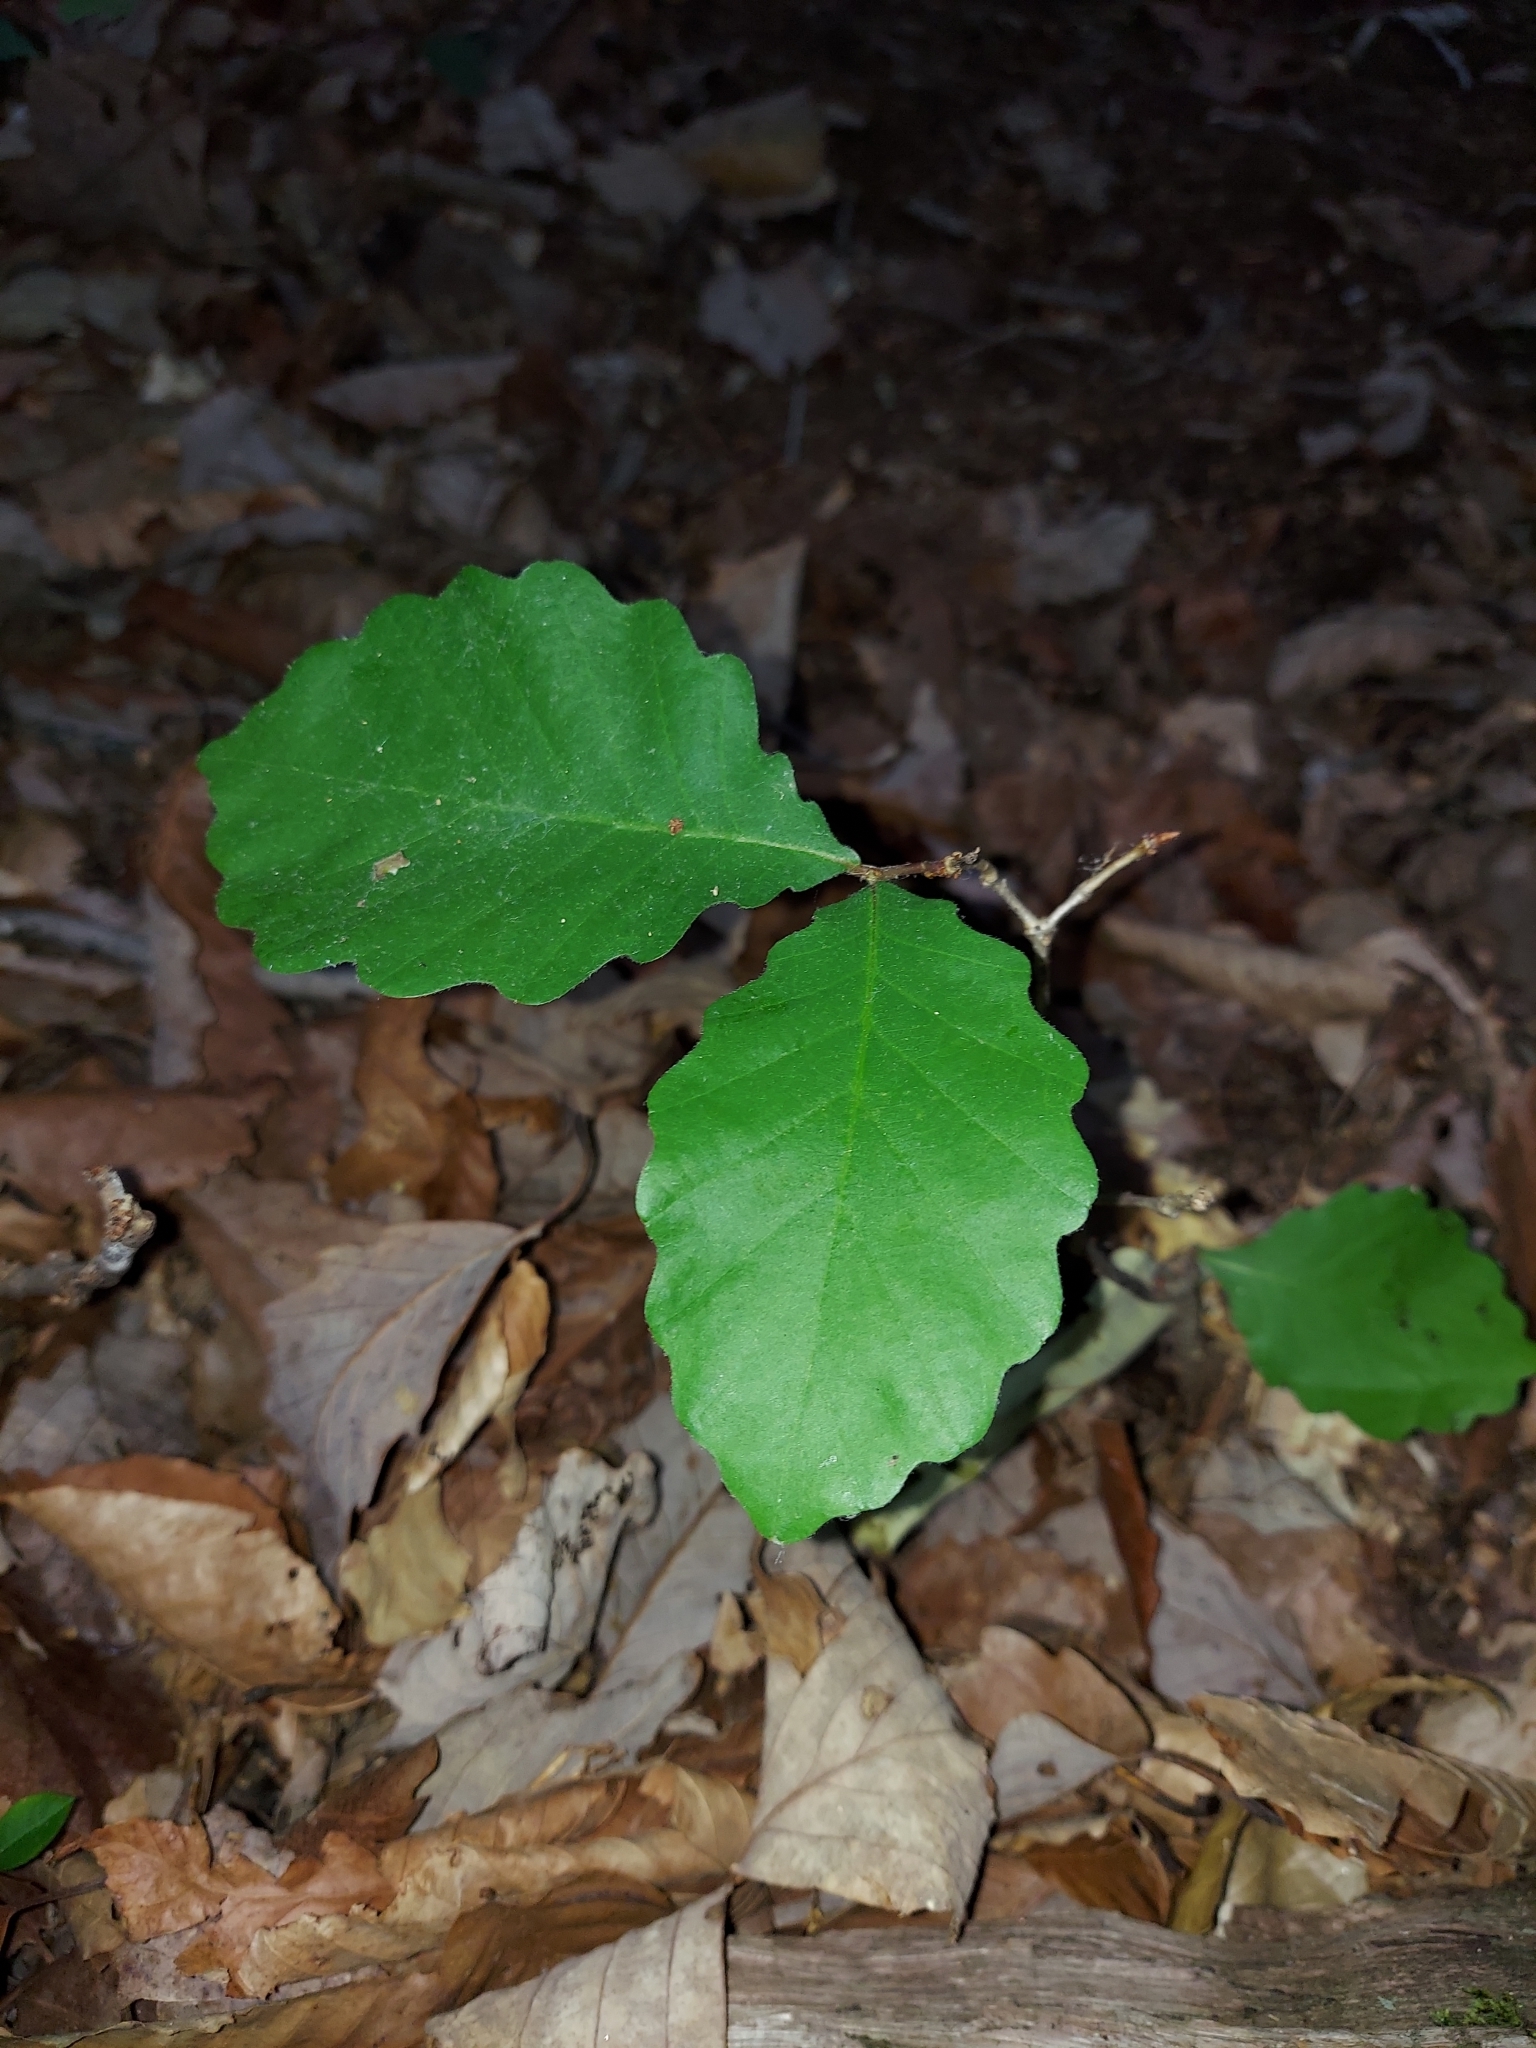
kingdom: Plantae
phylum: Tracheophyta
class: Magnoliopsida
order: Fagales
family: Fagaceae
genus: Quercus
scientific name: Quercus montana
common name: Chestnut oak
